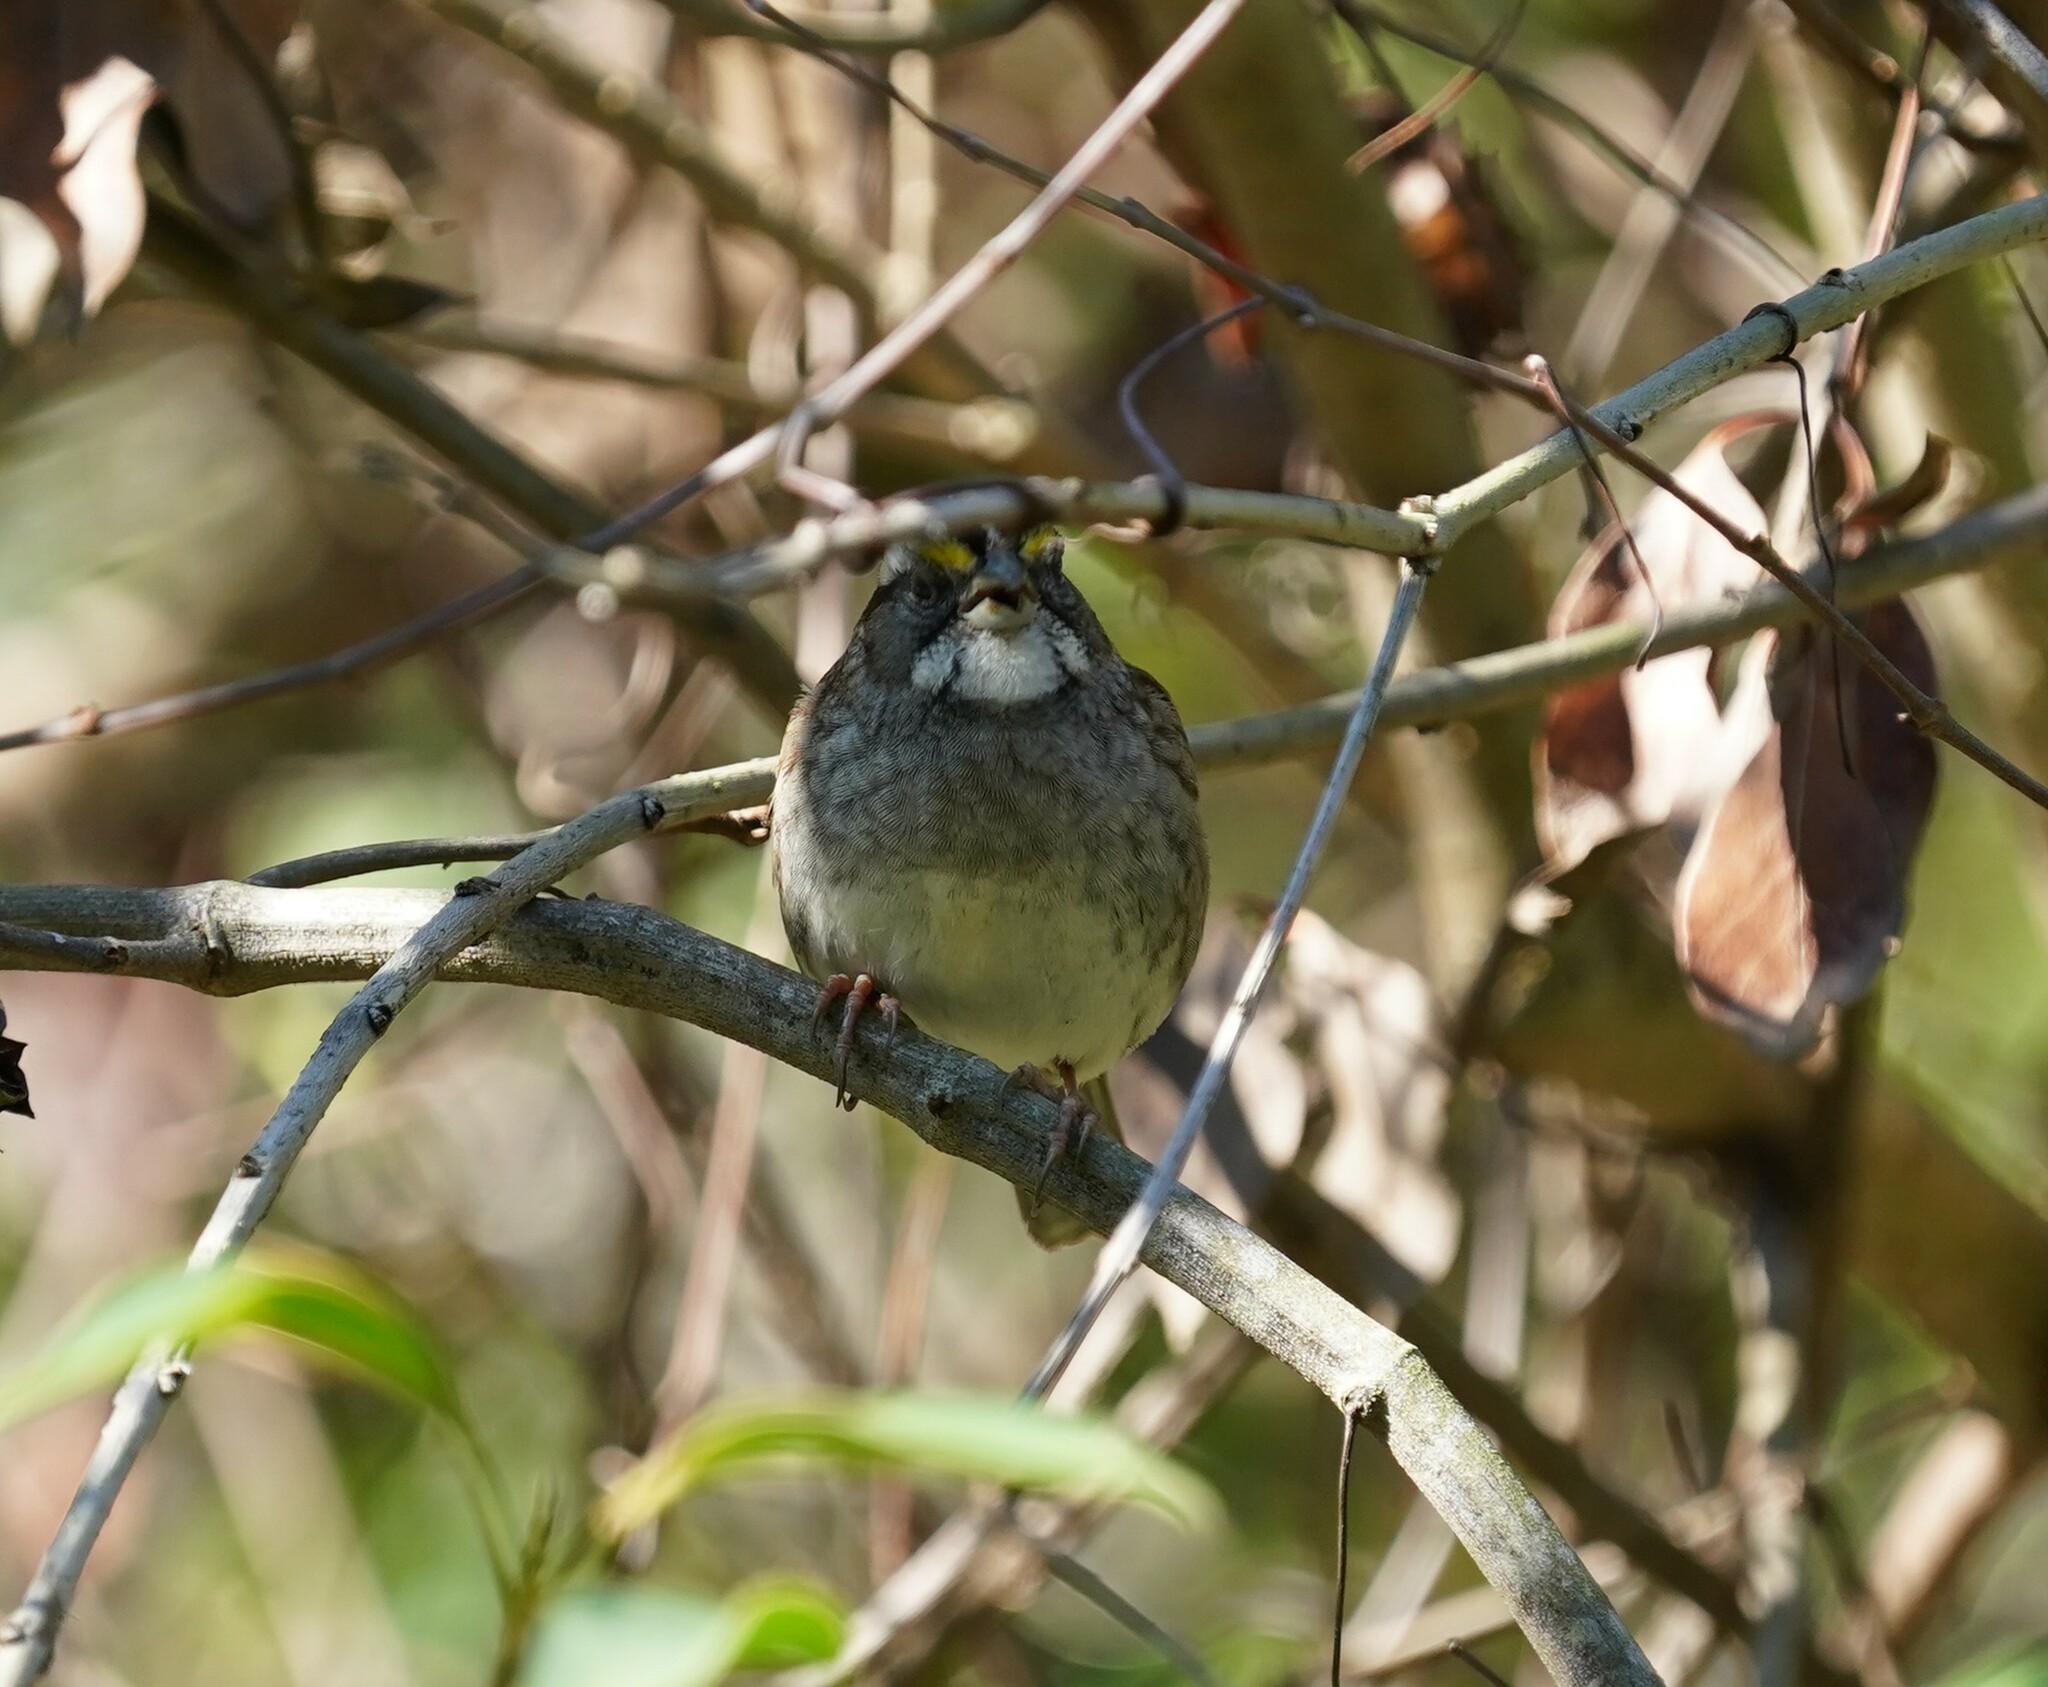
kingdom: Animalia
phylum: Chordata
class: Aves
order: Passeriformes
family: Passerellidae
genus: Zonotrichia
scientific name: Zonotrichia albicollis
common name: White-throated sparrow
